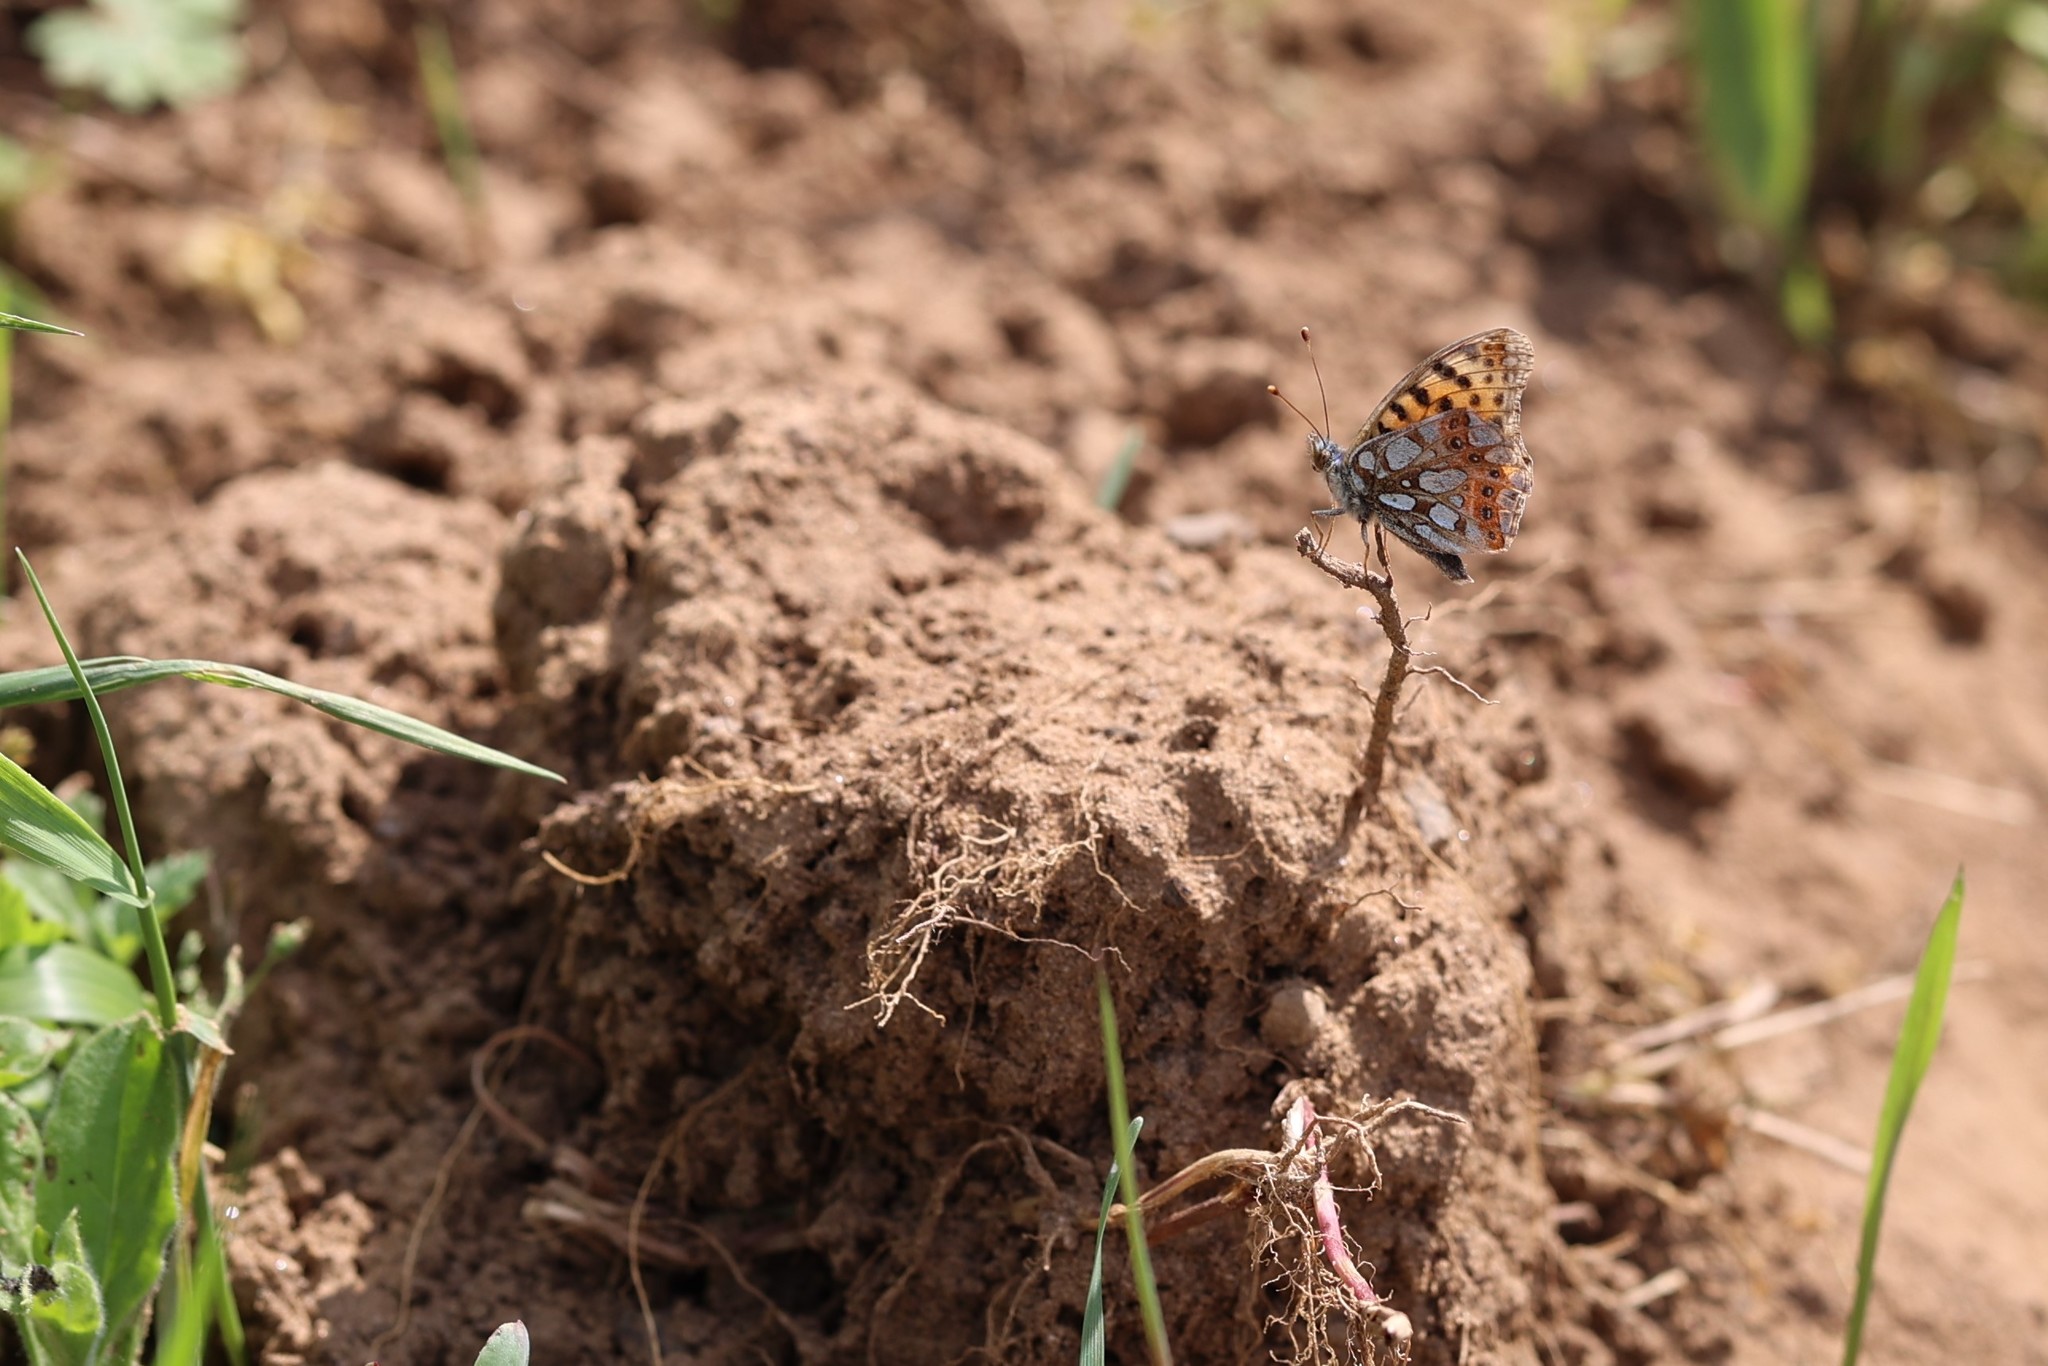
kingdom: Animalia
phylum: Arthropoda
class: Insecta
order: Lepidoptera
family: Nymphalidae
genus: Issoria
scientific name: Issoria lathonia
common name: Queen of spain fritillary
